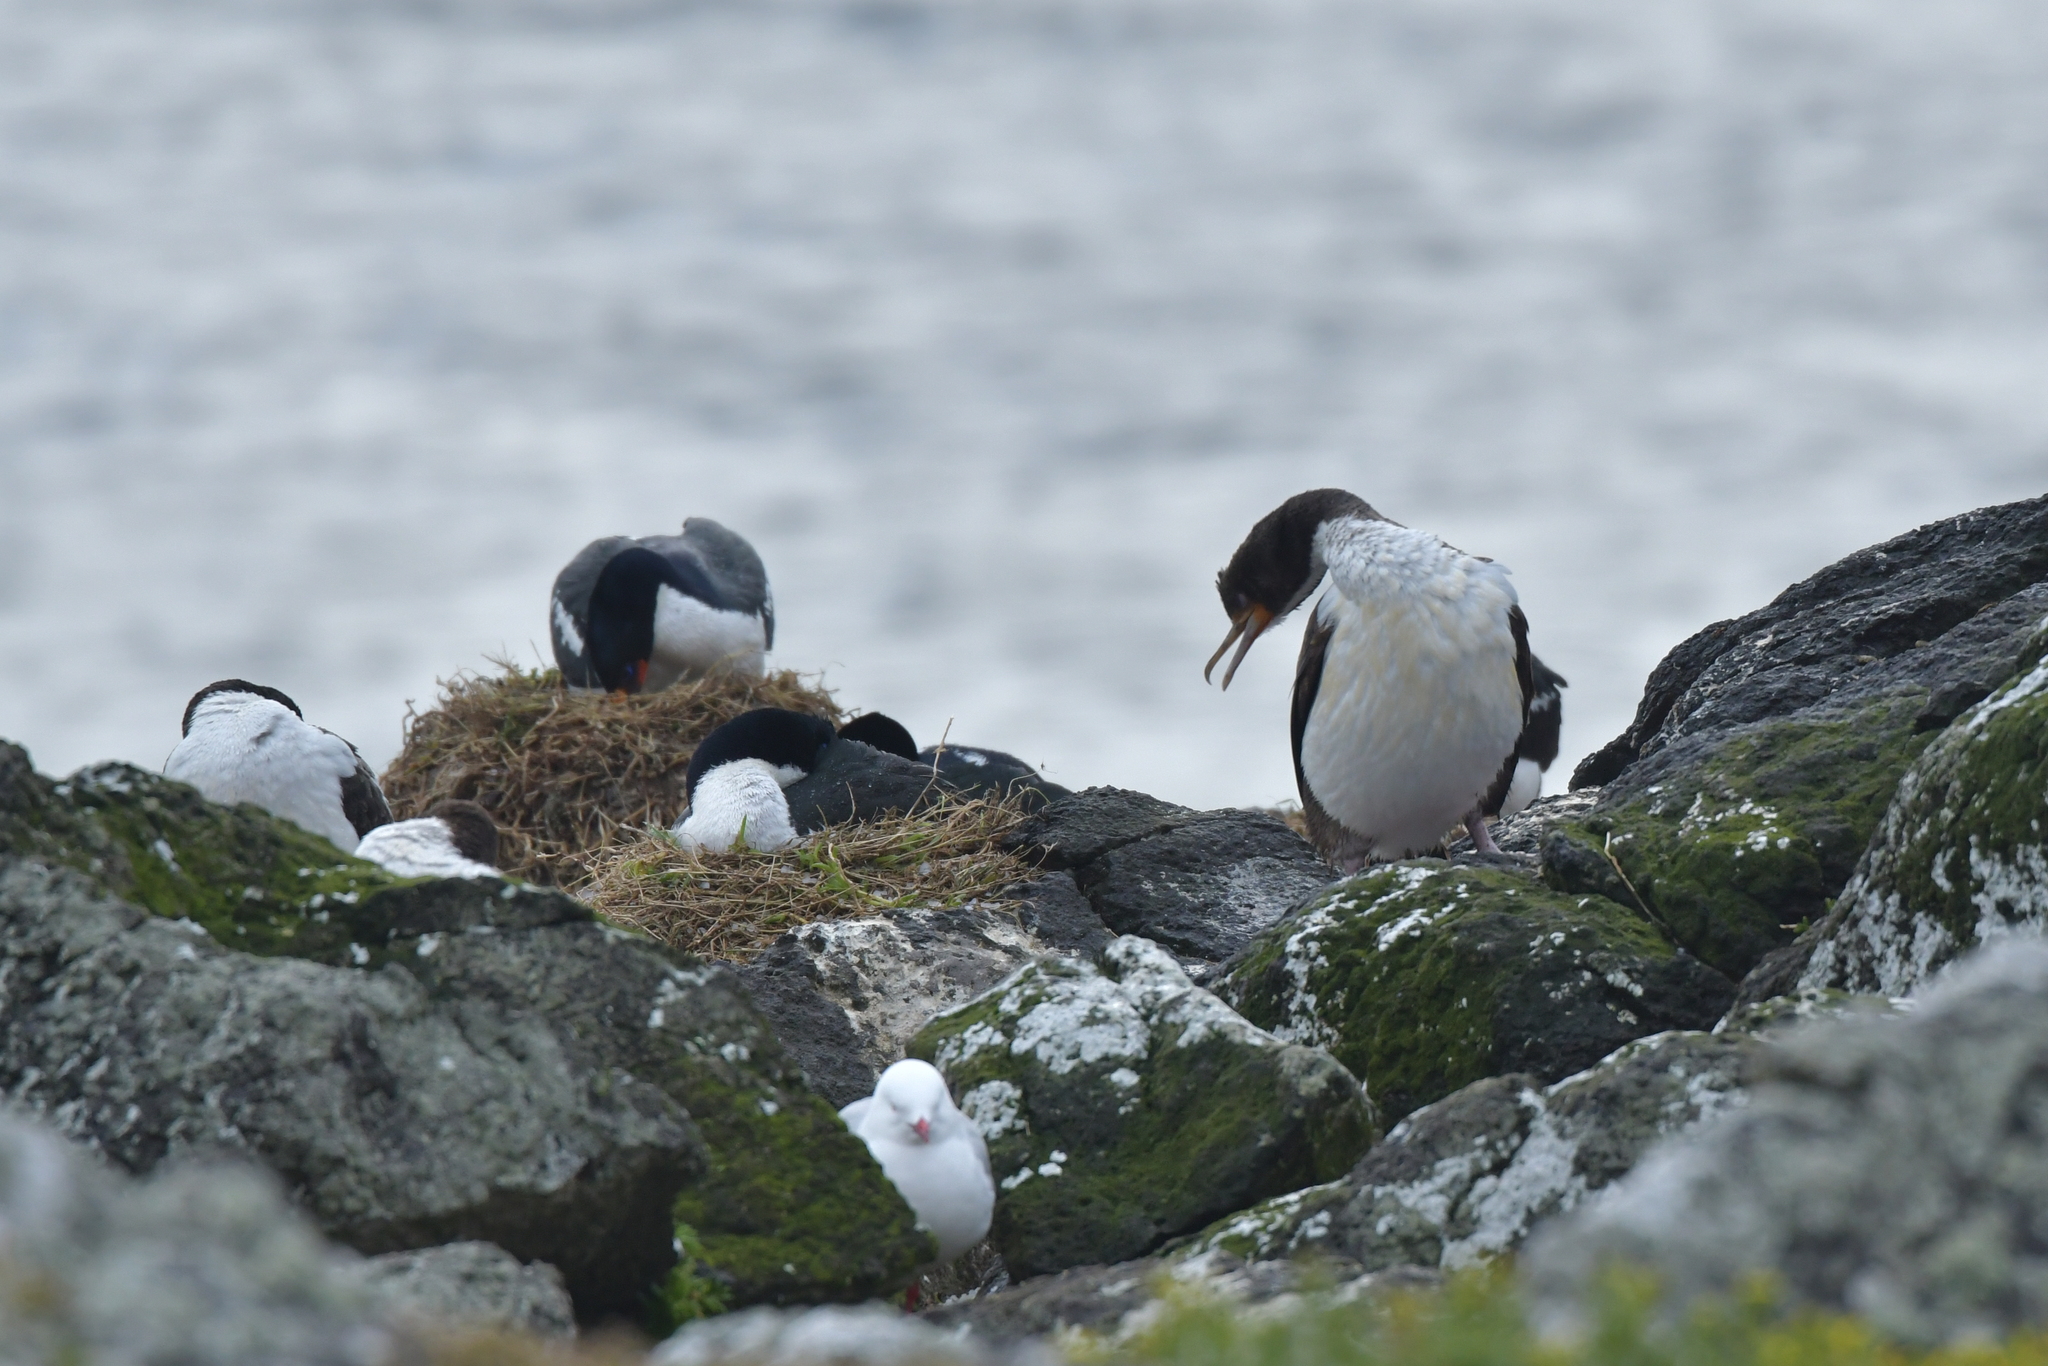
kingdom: Animalia
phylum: Chordata
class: Aves
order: Suliformes
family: Phalacrocoracidae
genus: Leucocarbo
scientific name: Leucocarbo onslowi
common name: Chatham shag
